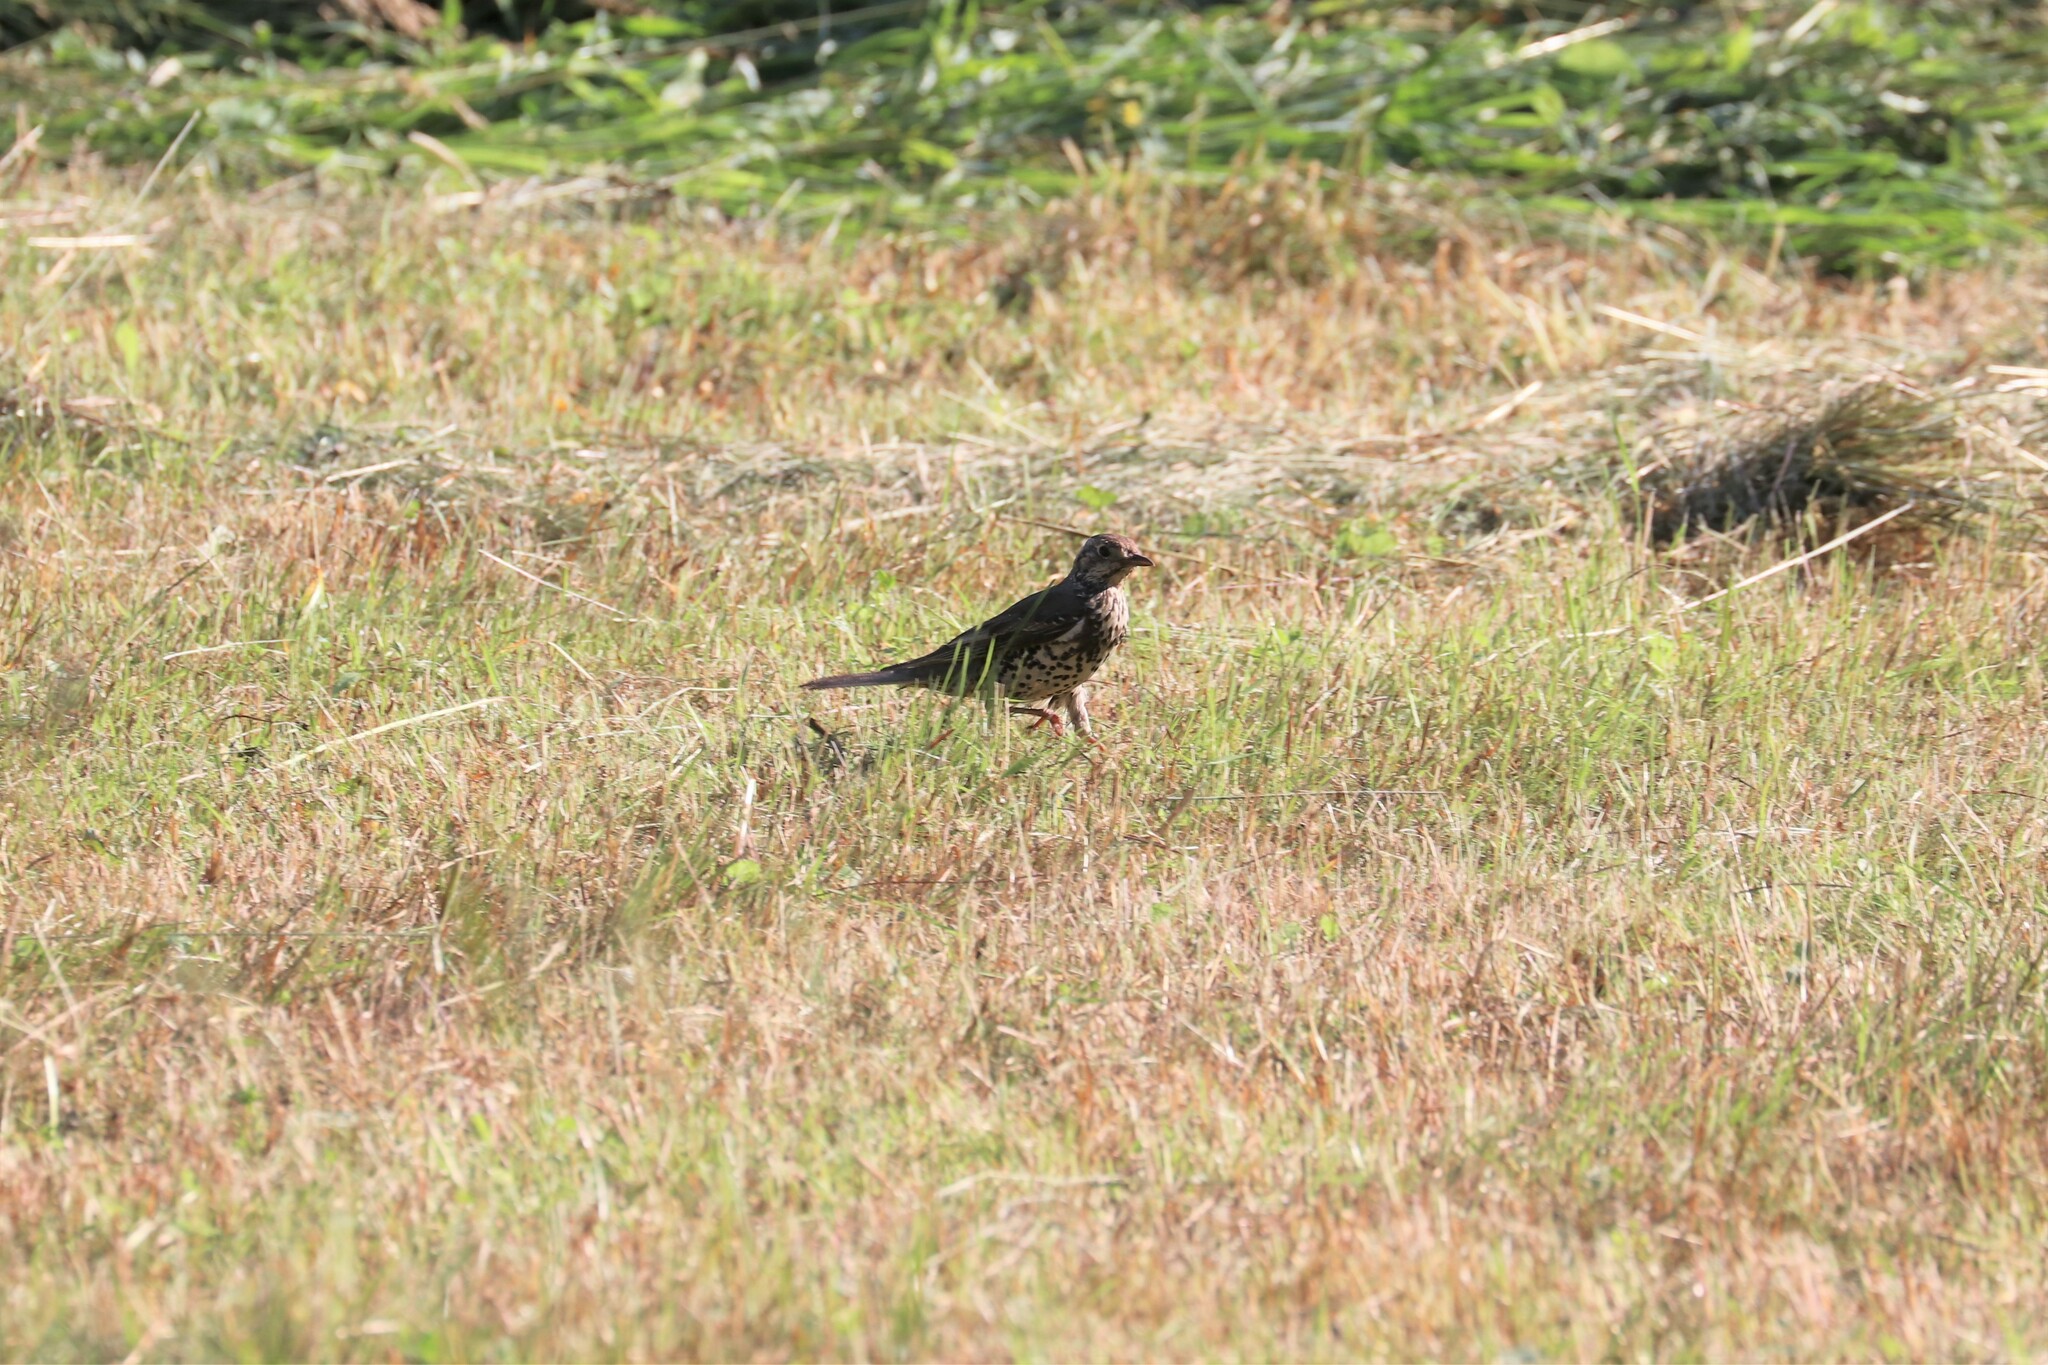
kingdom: Animalia
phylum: Chordata
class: Aves
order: Passeriformes
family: Turdidae
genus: Turdus
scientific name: Turdus viscivorus
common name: Mistle thrush
